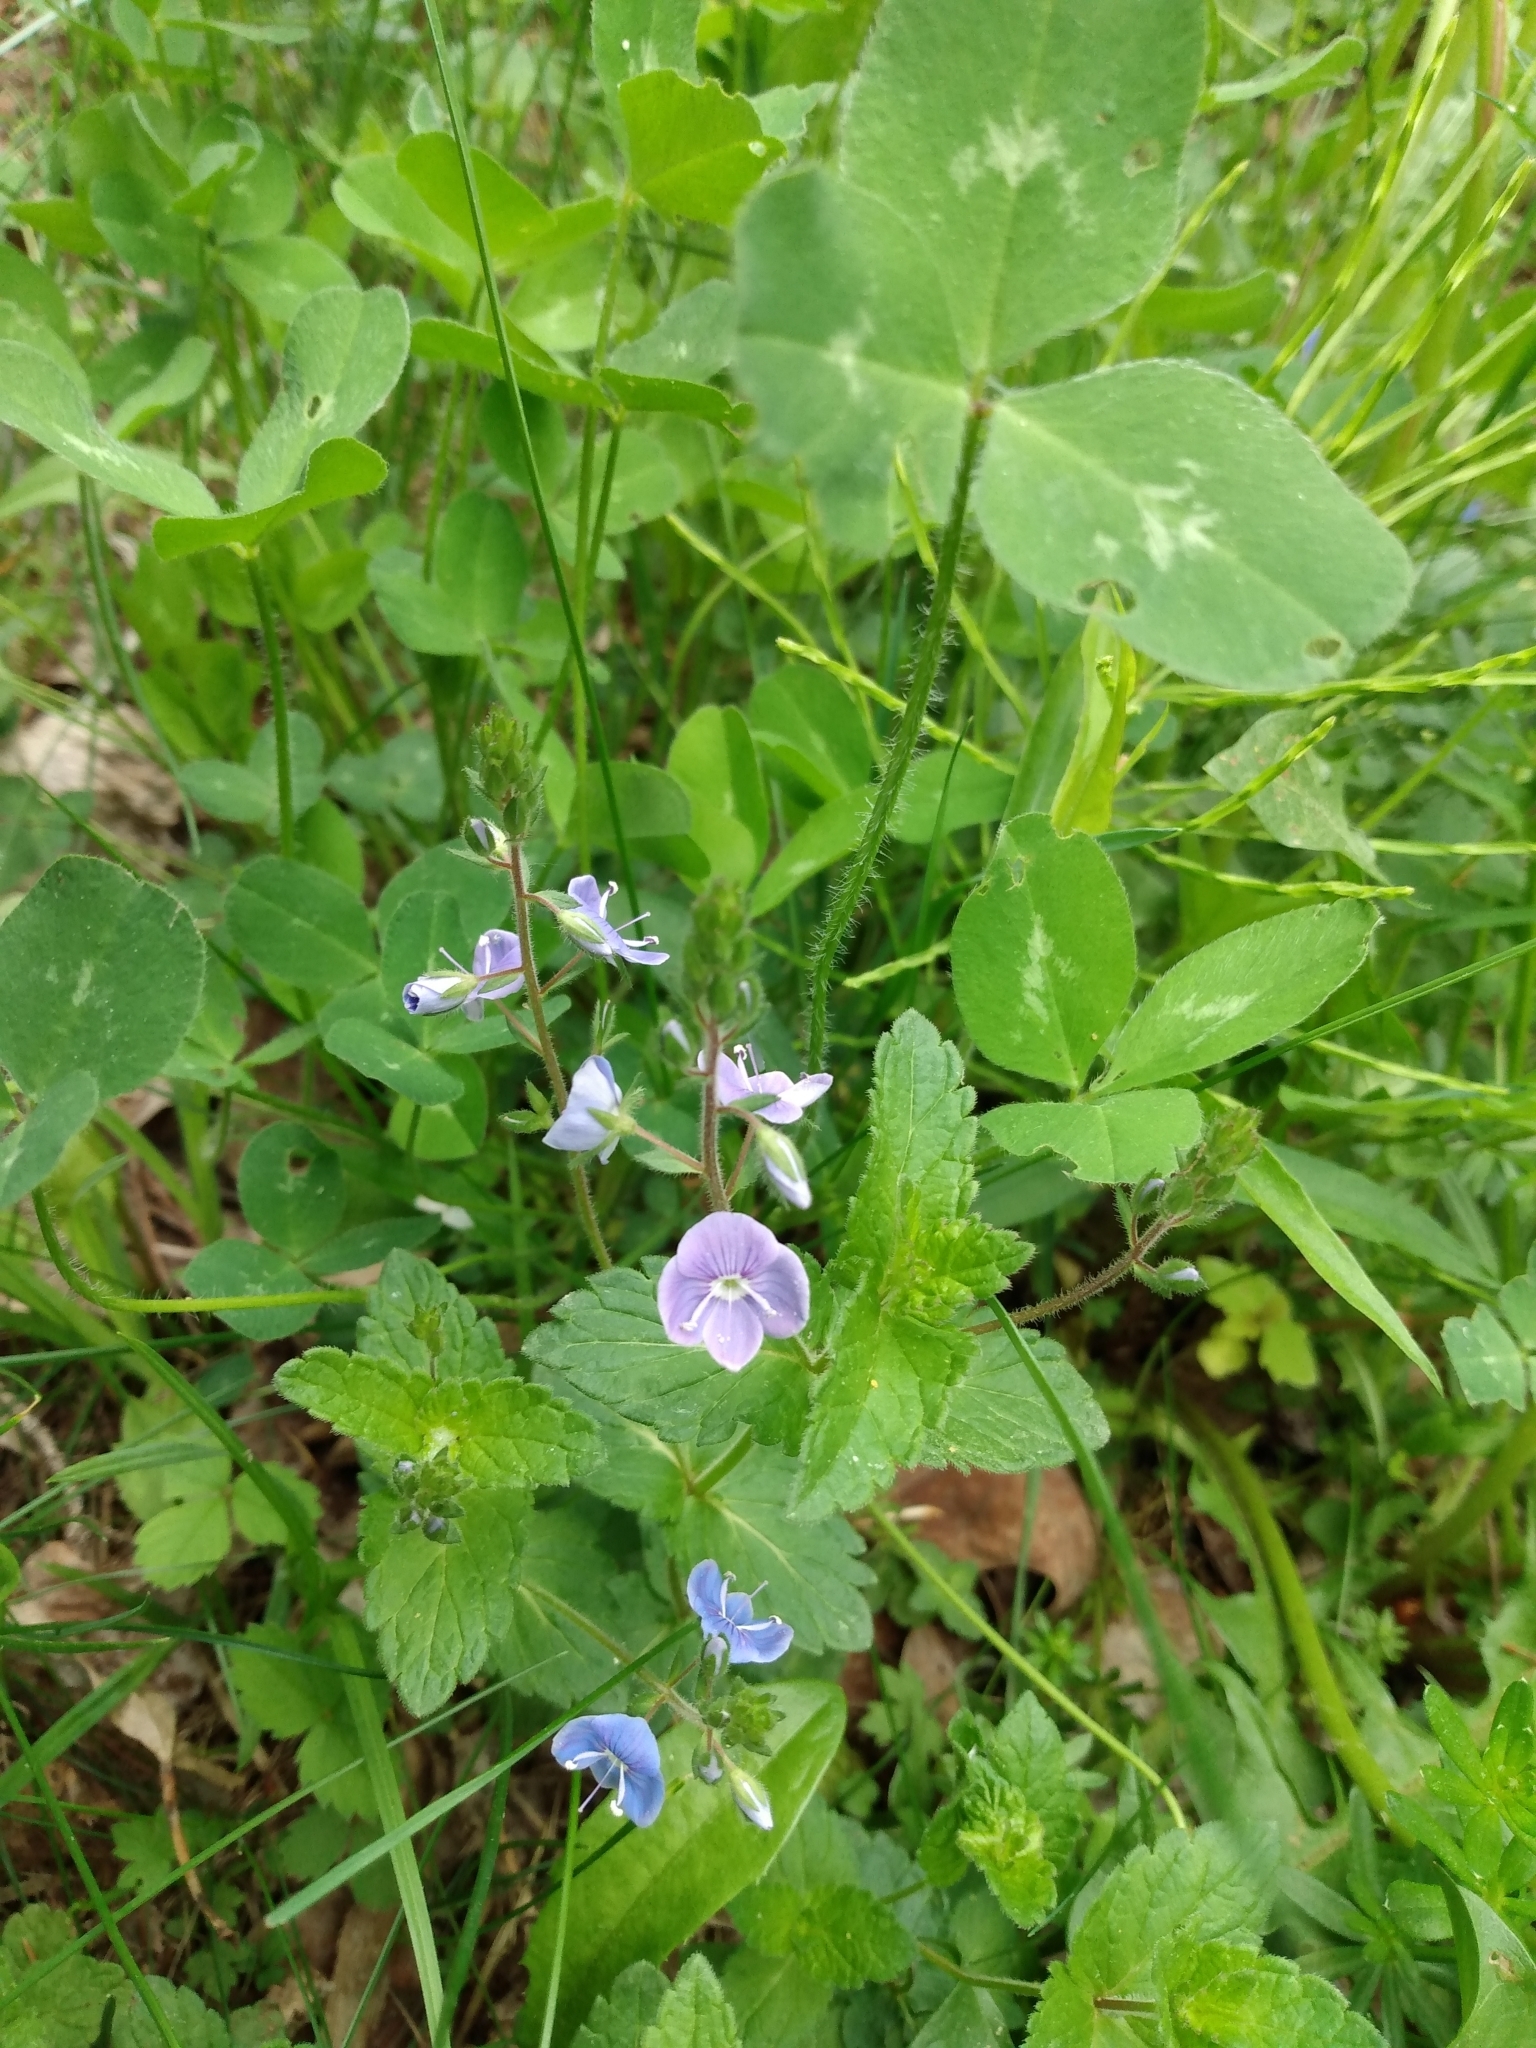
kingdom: Plantae
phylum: Tracheophyta
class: Magnoliopsida
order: Lamiales
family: Plantaginaceae
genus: Veronica
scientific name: Veronica chamaedrys
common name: Germander speedwell
